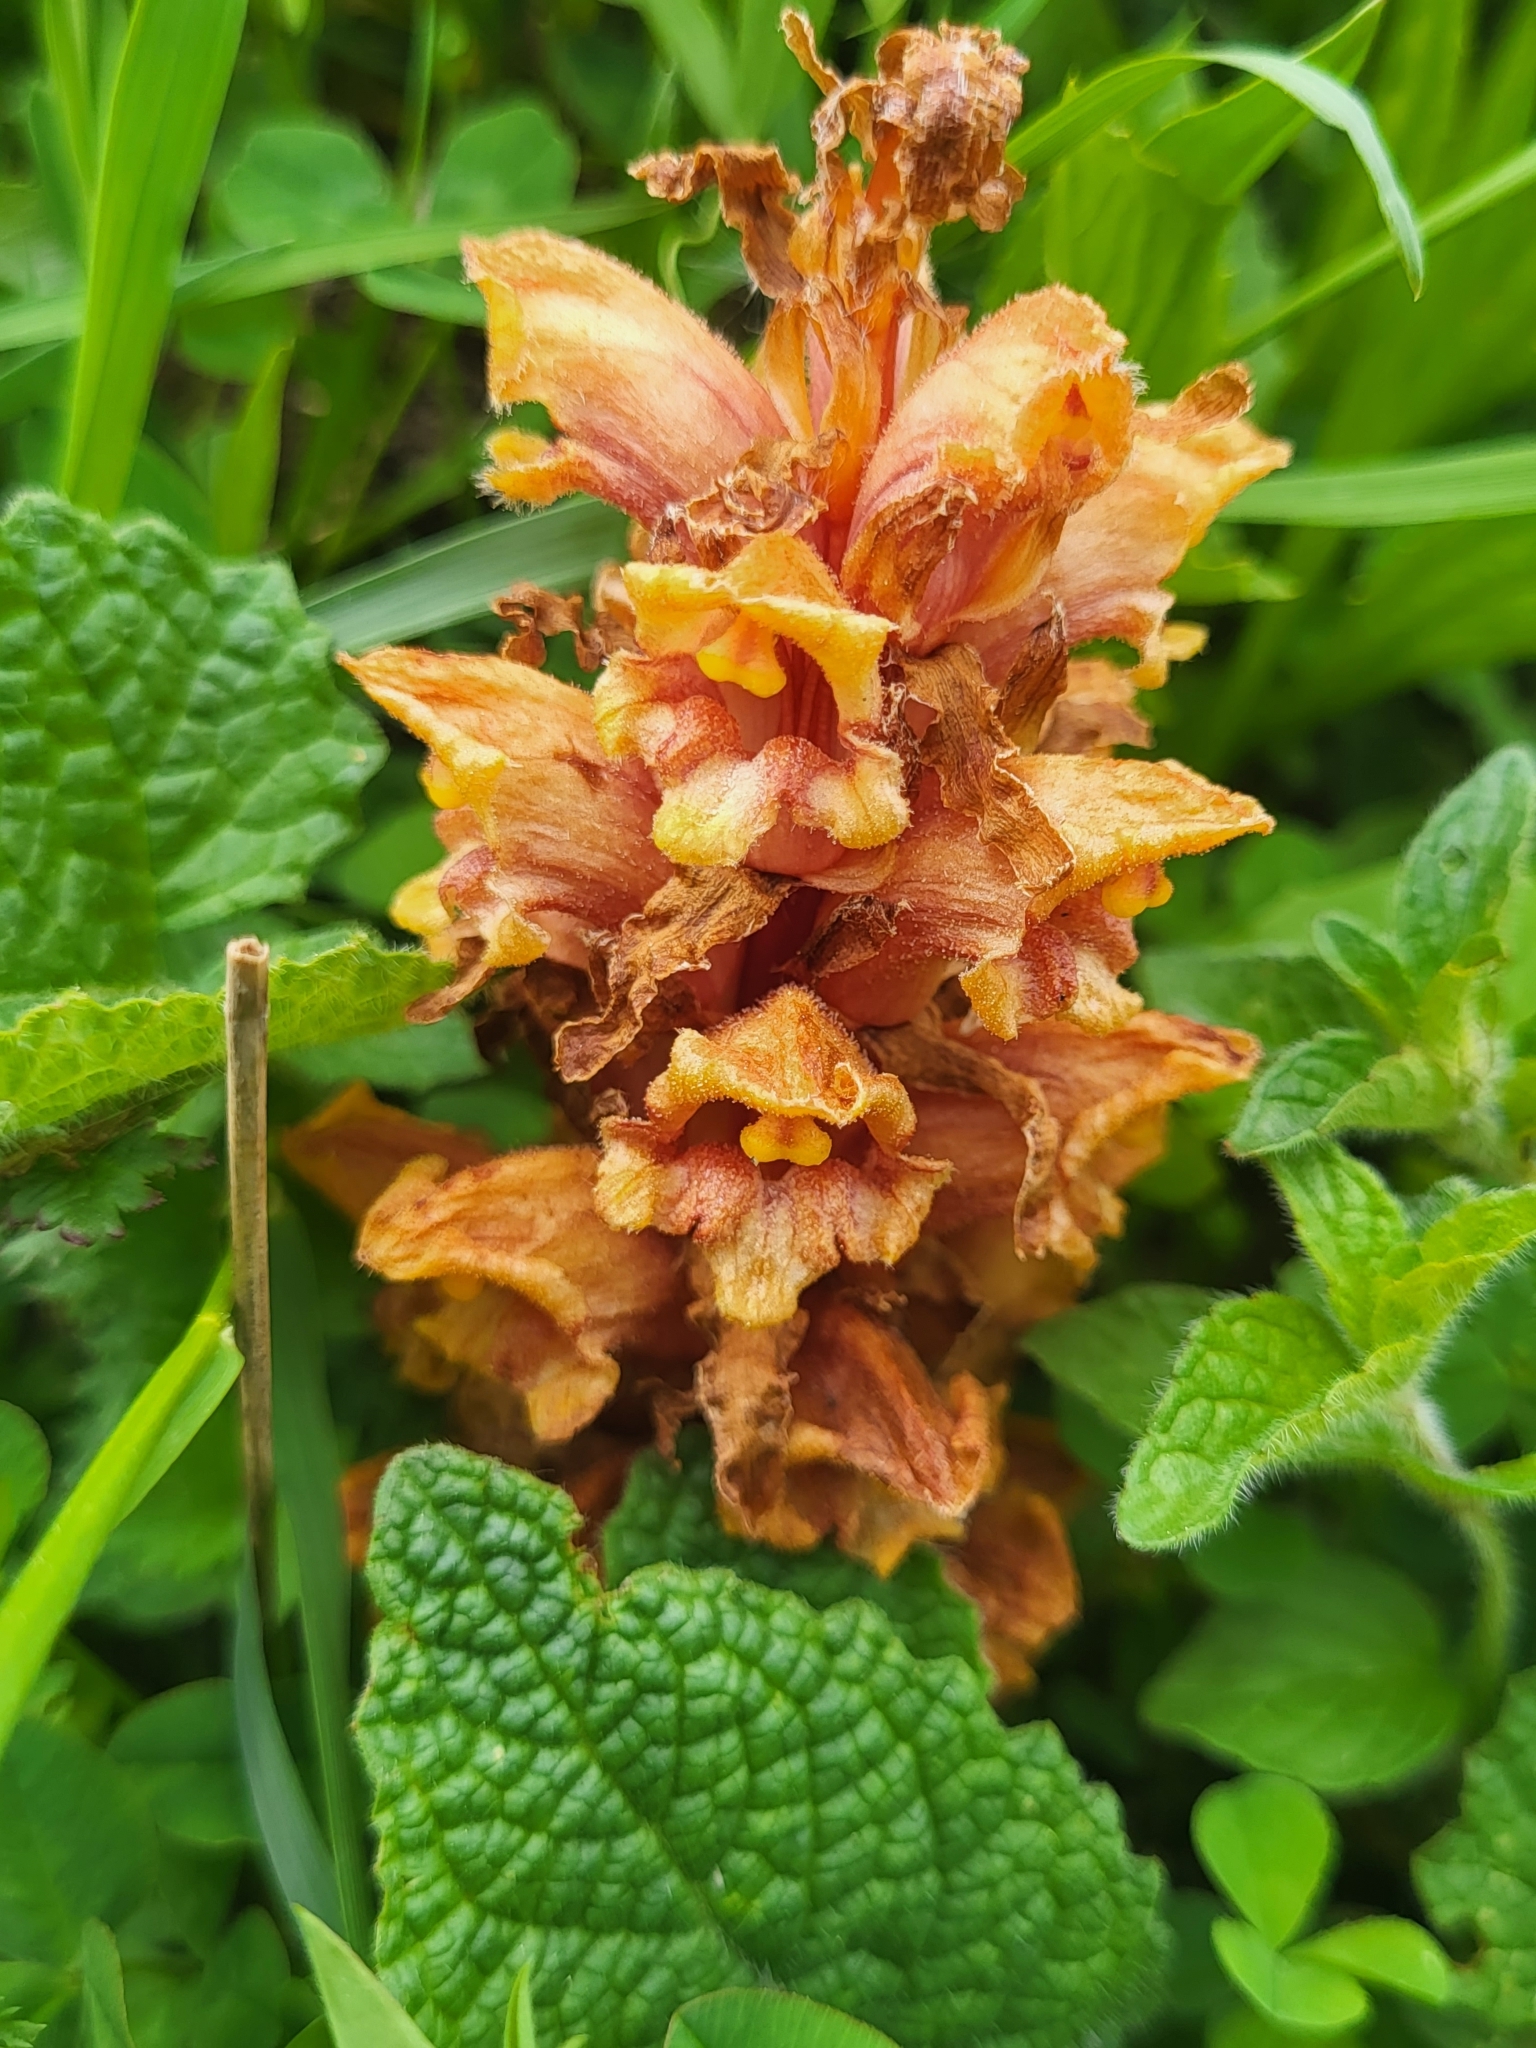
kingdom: Plantae
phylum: Tracheophyta
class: Magnoliopsida
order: Lamiales
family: Orobanchaceae
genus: Orobanche
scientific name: Orobanche colorata
